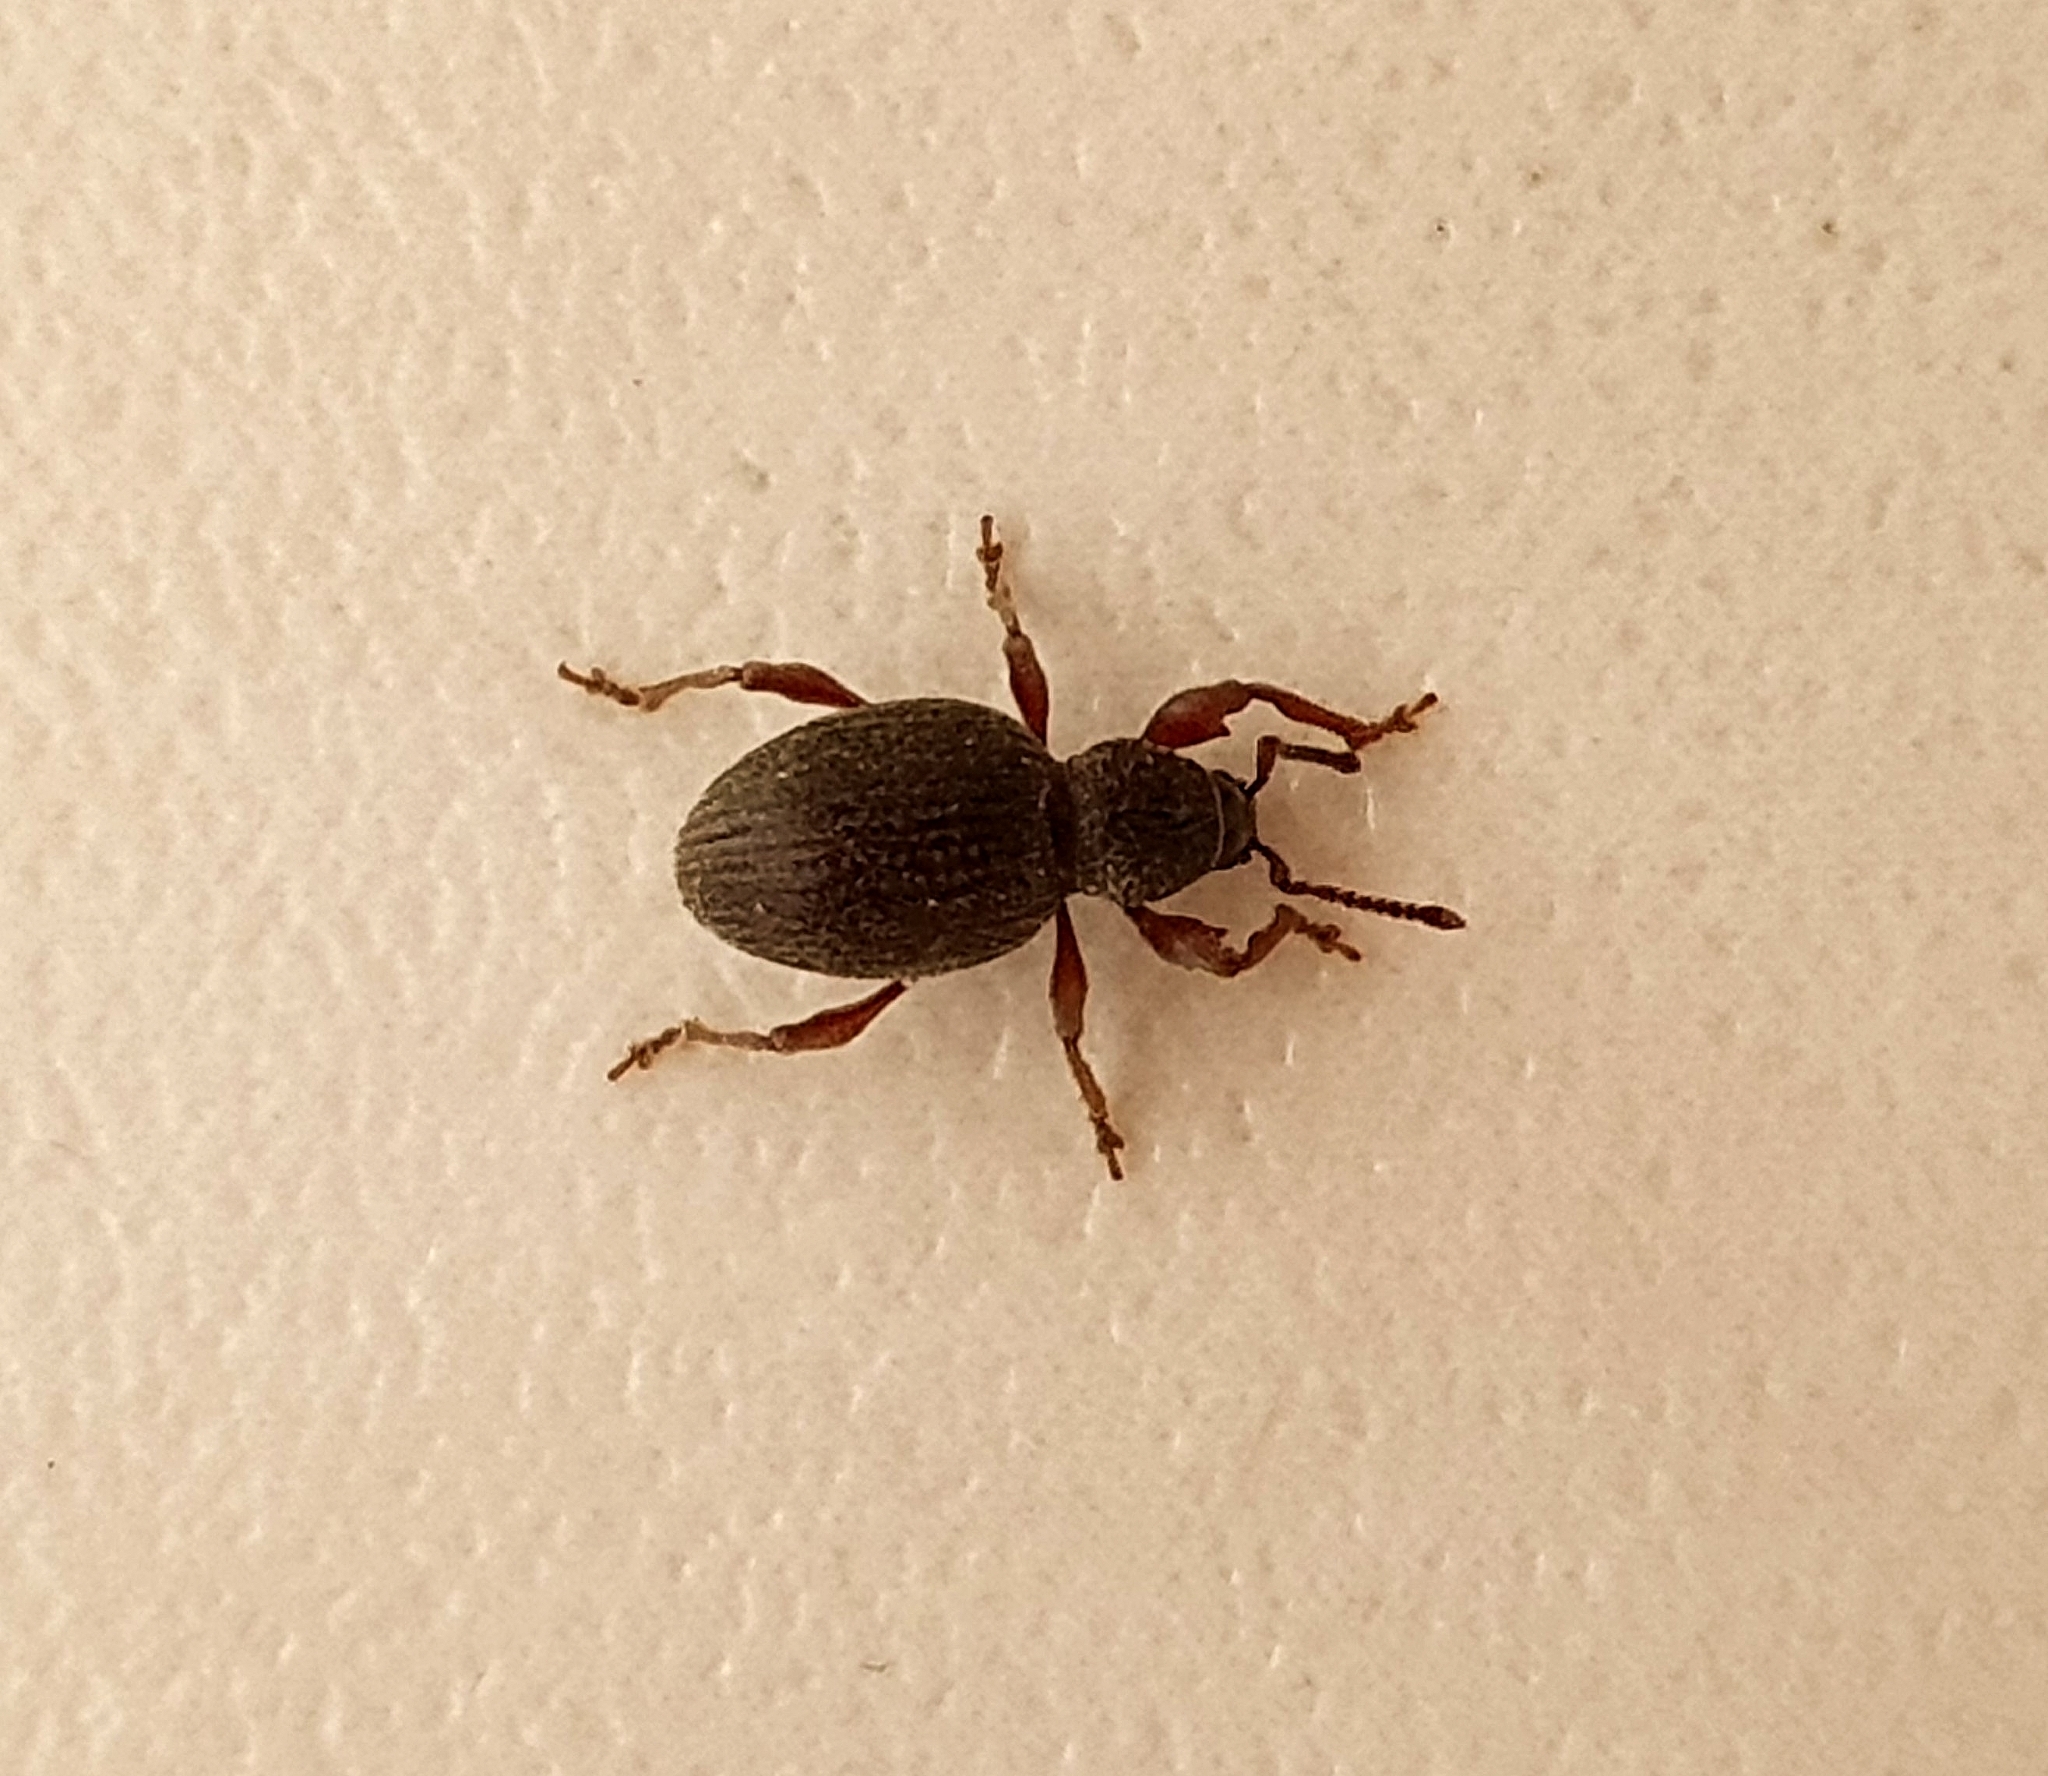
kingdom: Animalia
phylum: Arthropoda
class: Insecta
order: Coleoptera
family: Curculionidae
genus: Otiorhynchus
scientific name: Otiorhynchus ovatus
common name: Strawberry root weevil
